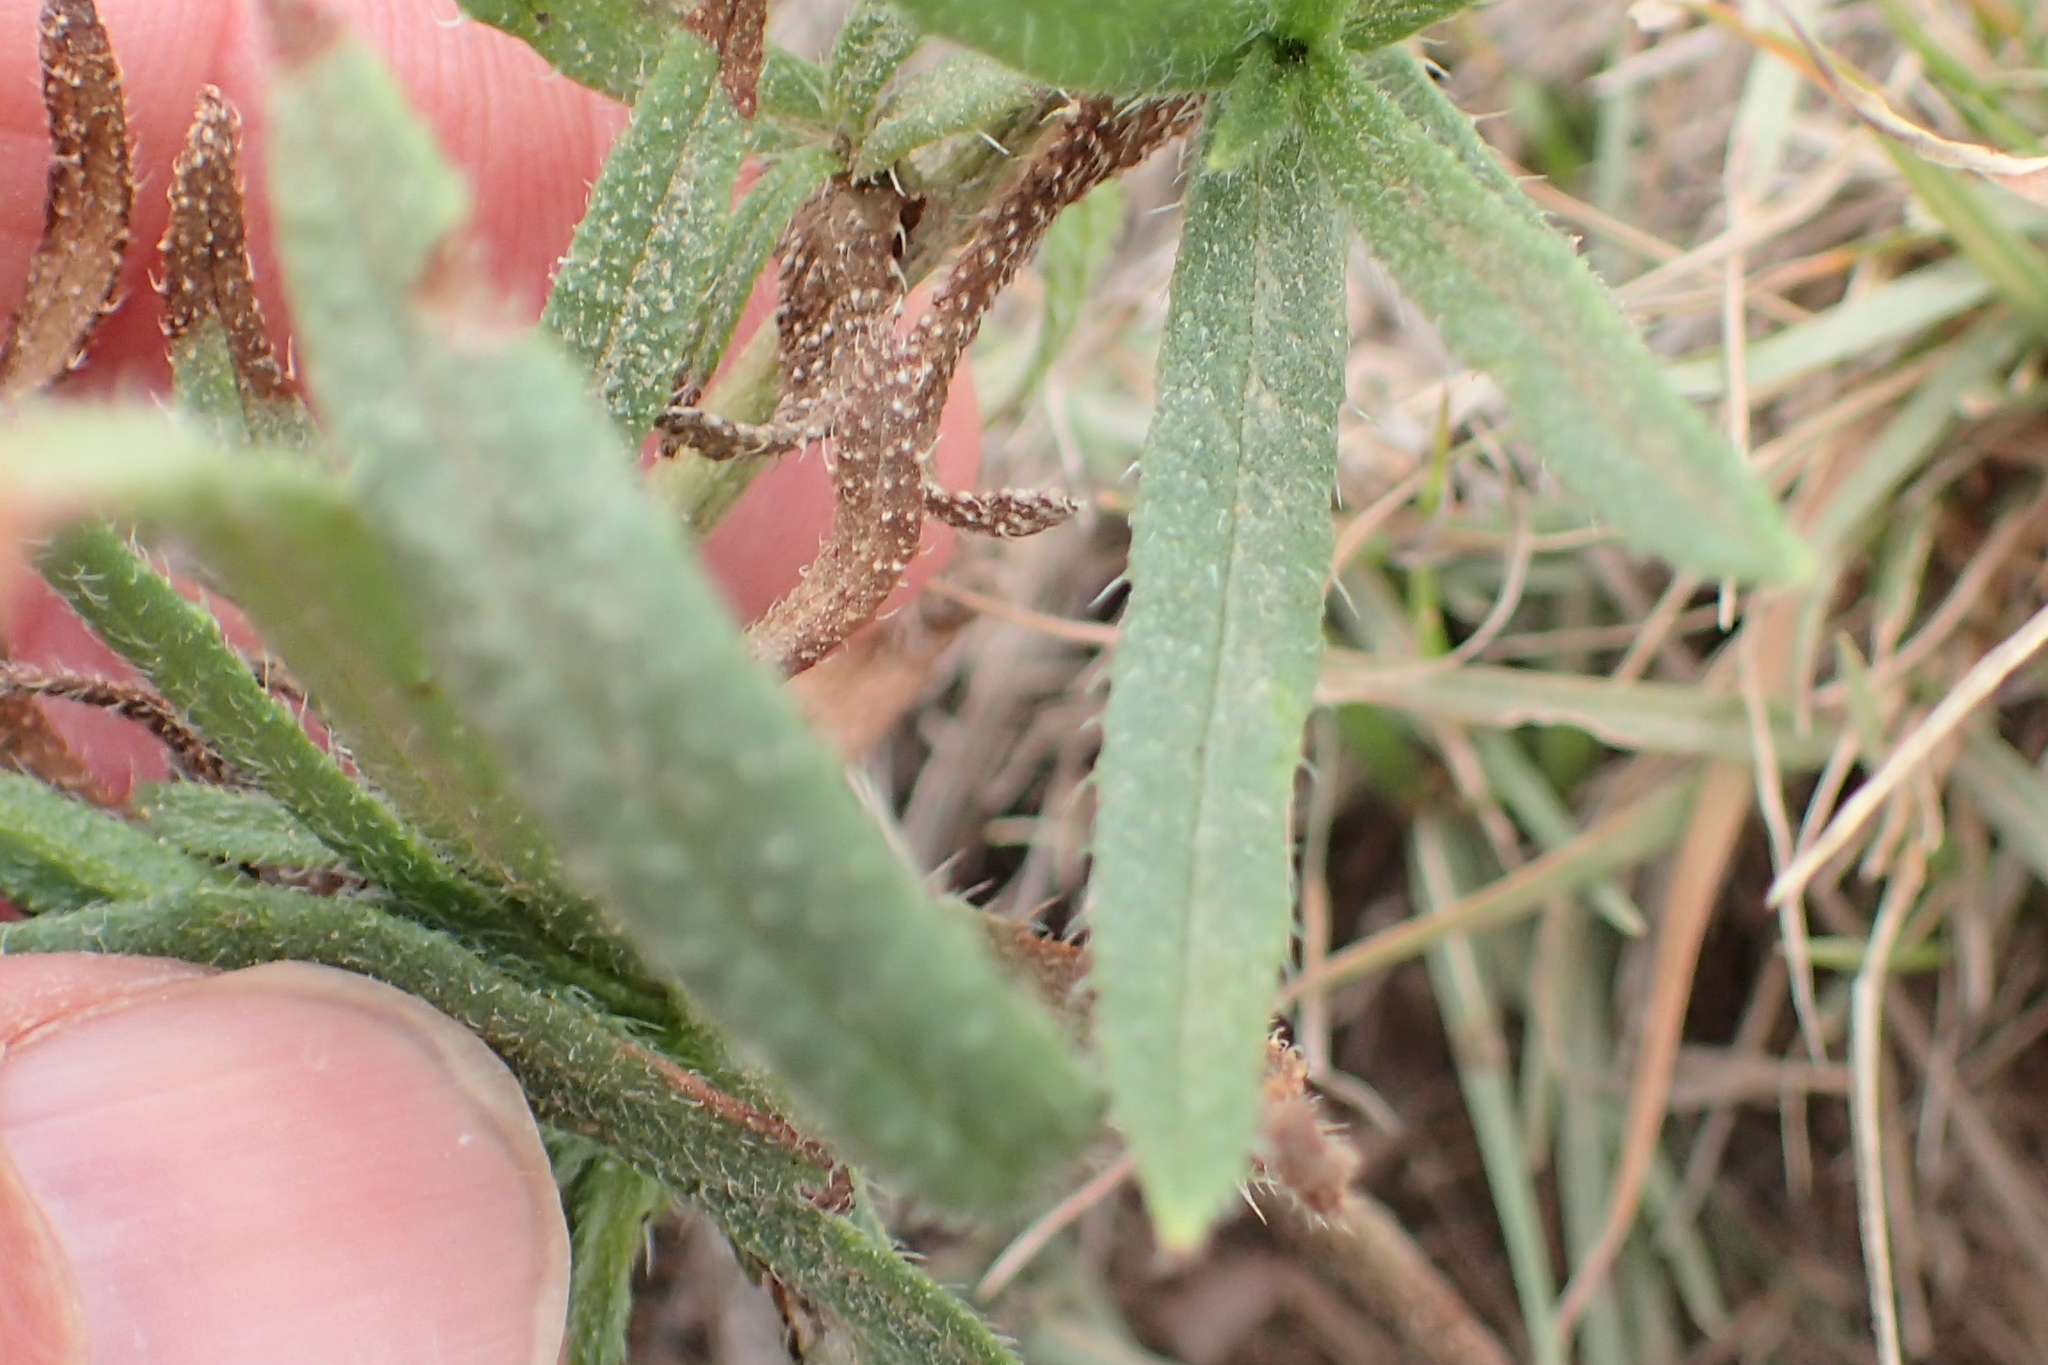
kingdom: Plantae
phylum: Tracheophyta
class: Magnoliopsida
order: Boraginales
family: Boraginaceae
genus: Anchusa
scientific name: Anchusa capensis
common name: Cape bugloss
